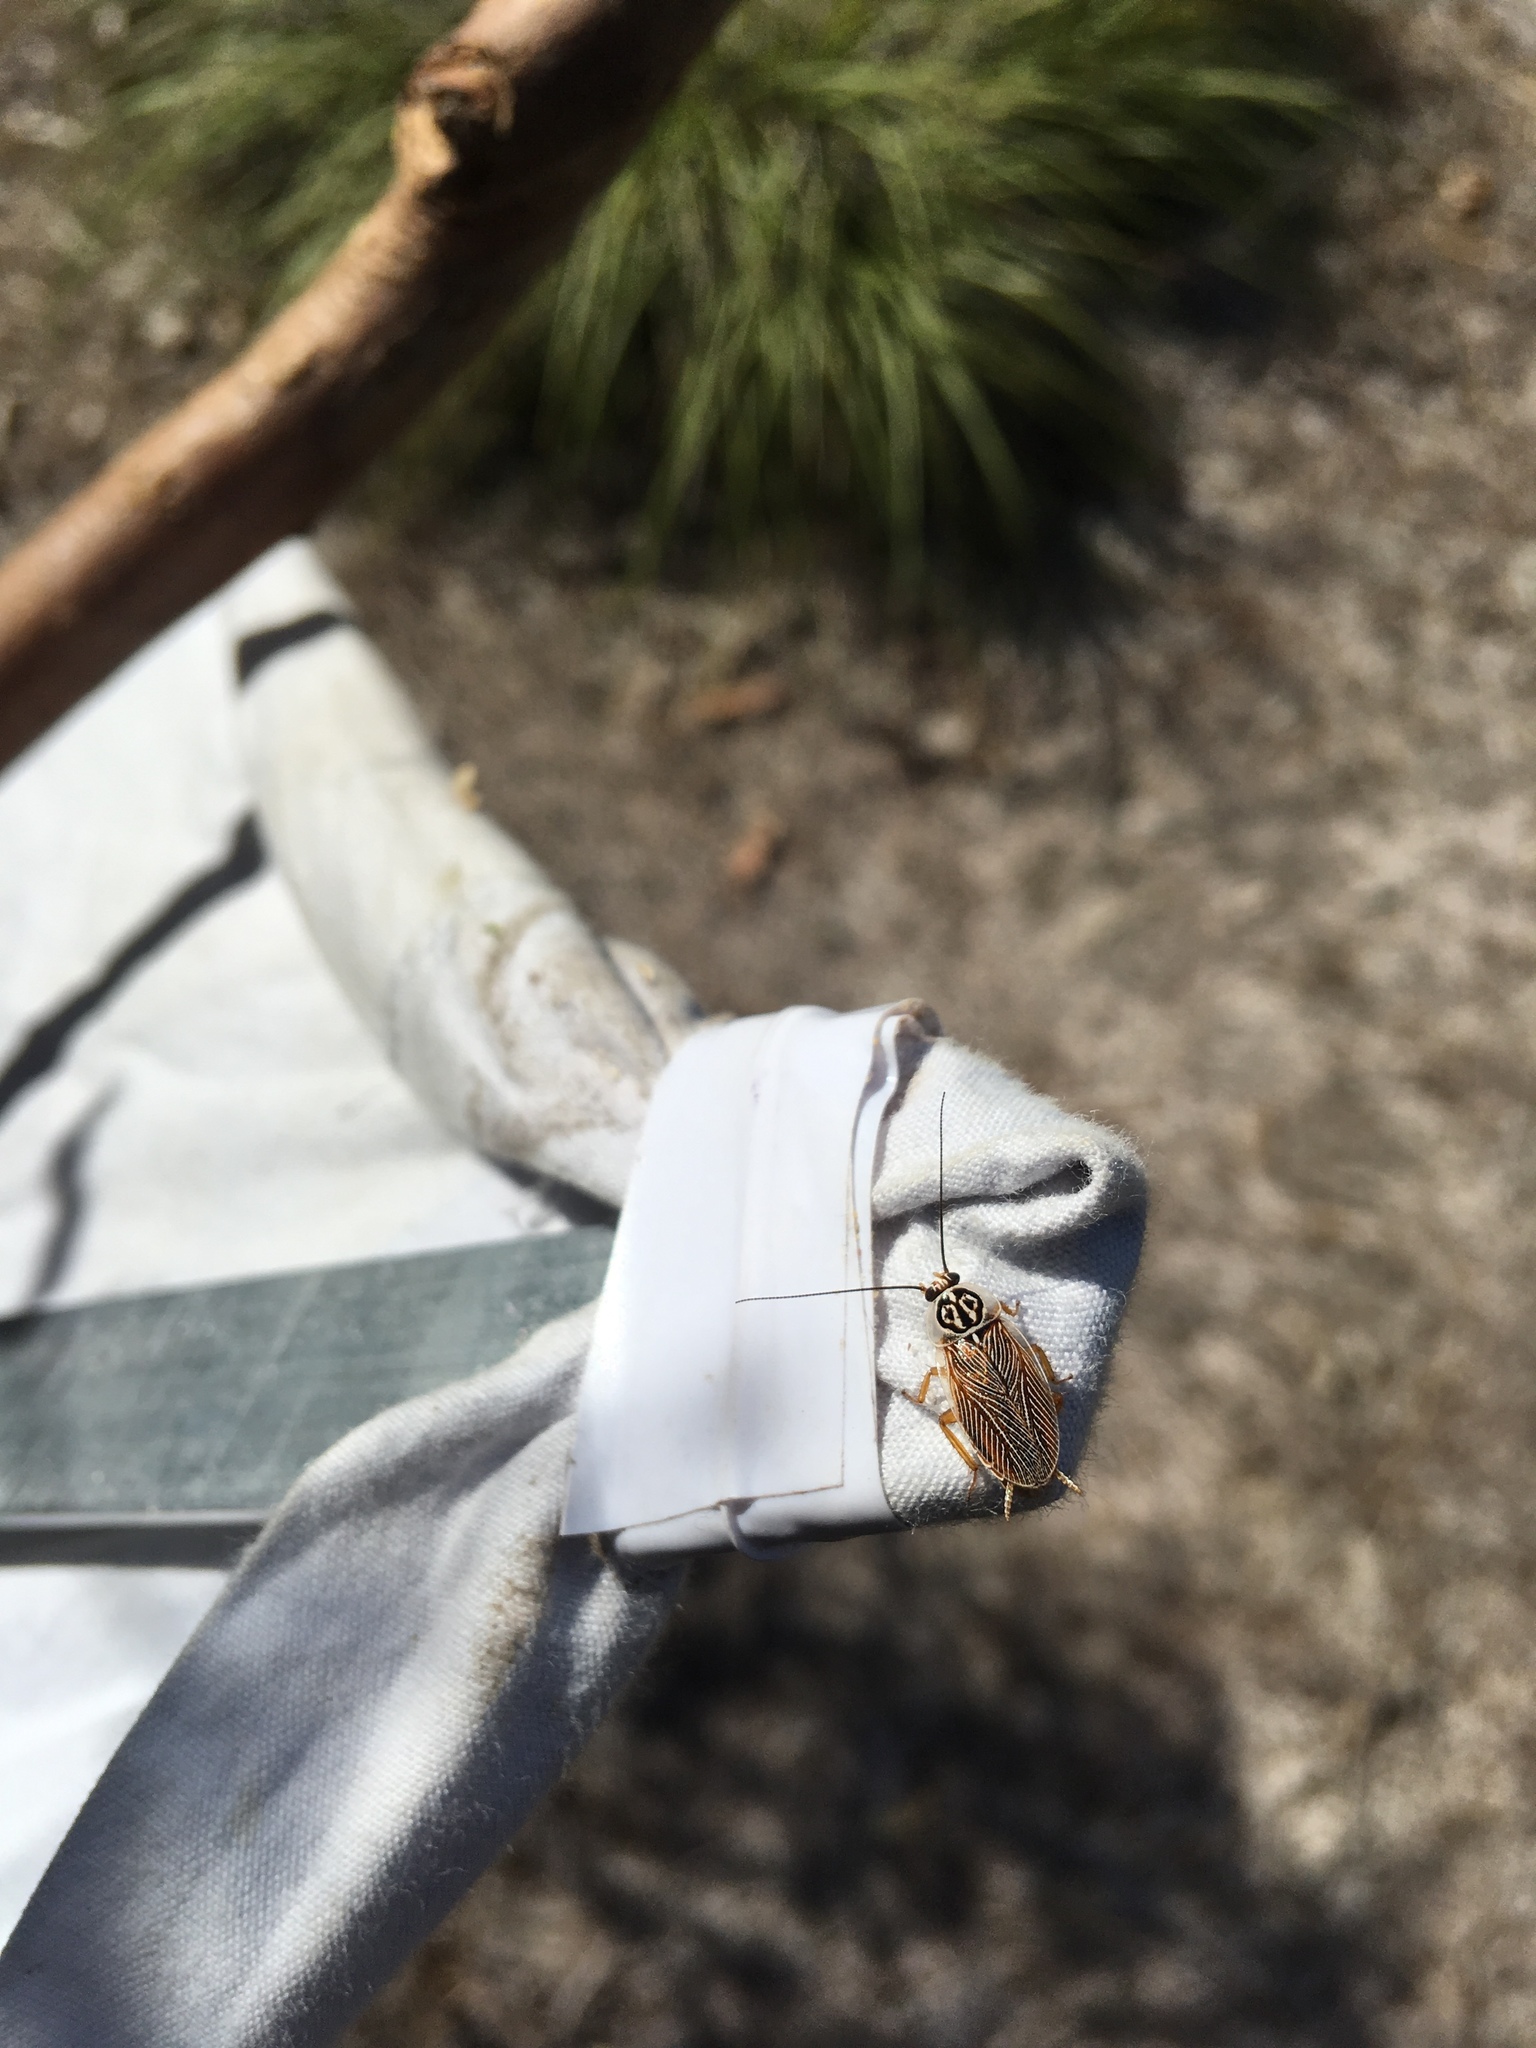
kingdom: Animalia
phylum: Arthropoda
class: Insecta
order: Blattodea
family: Ectobiidae
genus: Balta
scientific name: Balta hebardi
